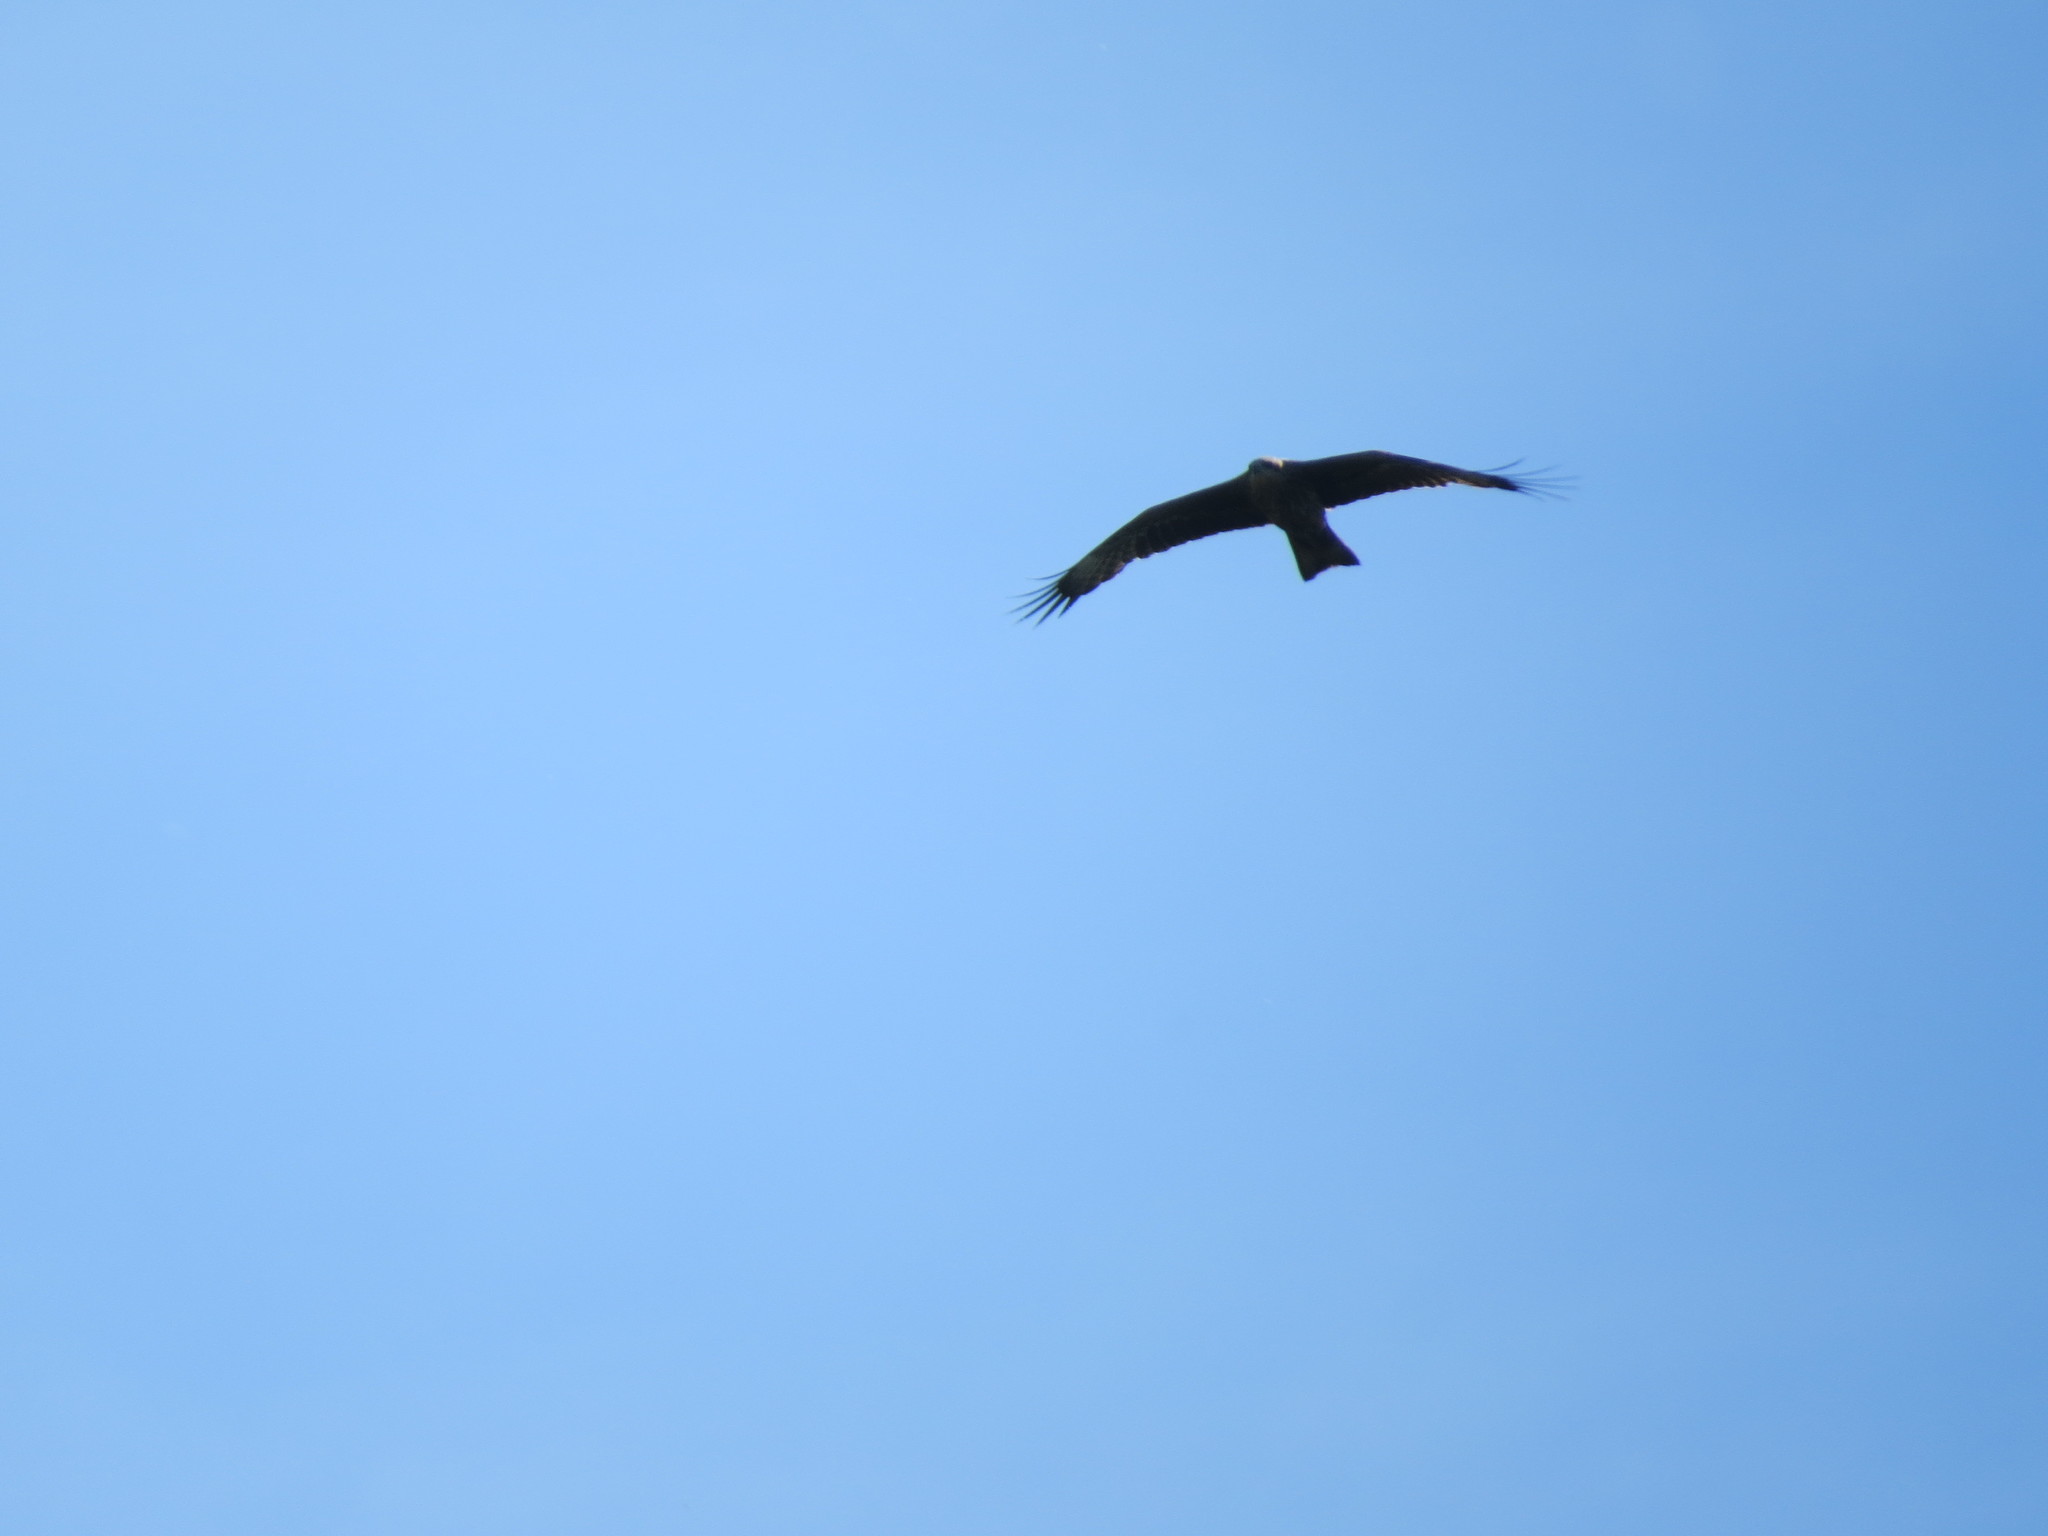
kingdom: Animalia
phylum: Chordata
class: Aves
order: Accipitriformes
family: Accipitridae
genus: Milvus
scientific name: Milvus migrans
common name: Black kite
